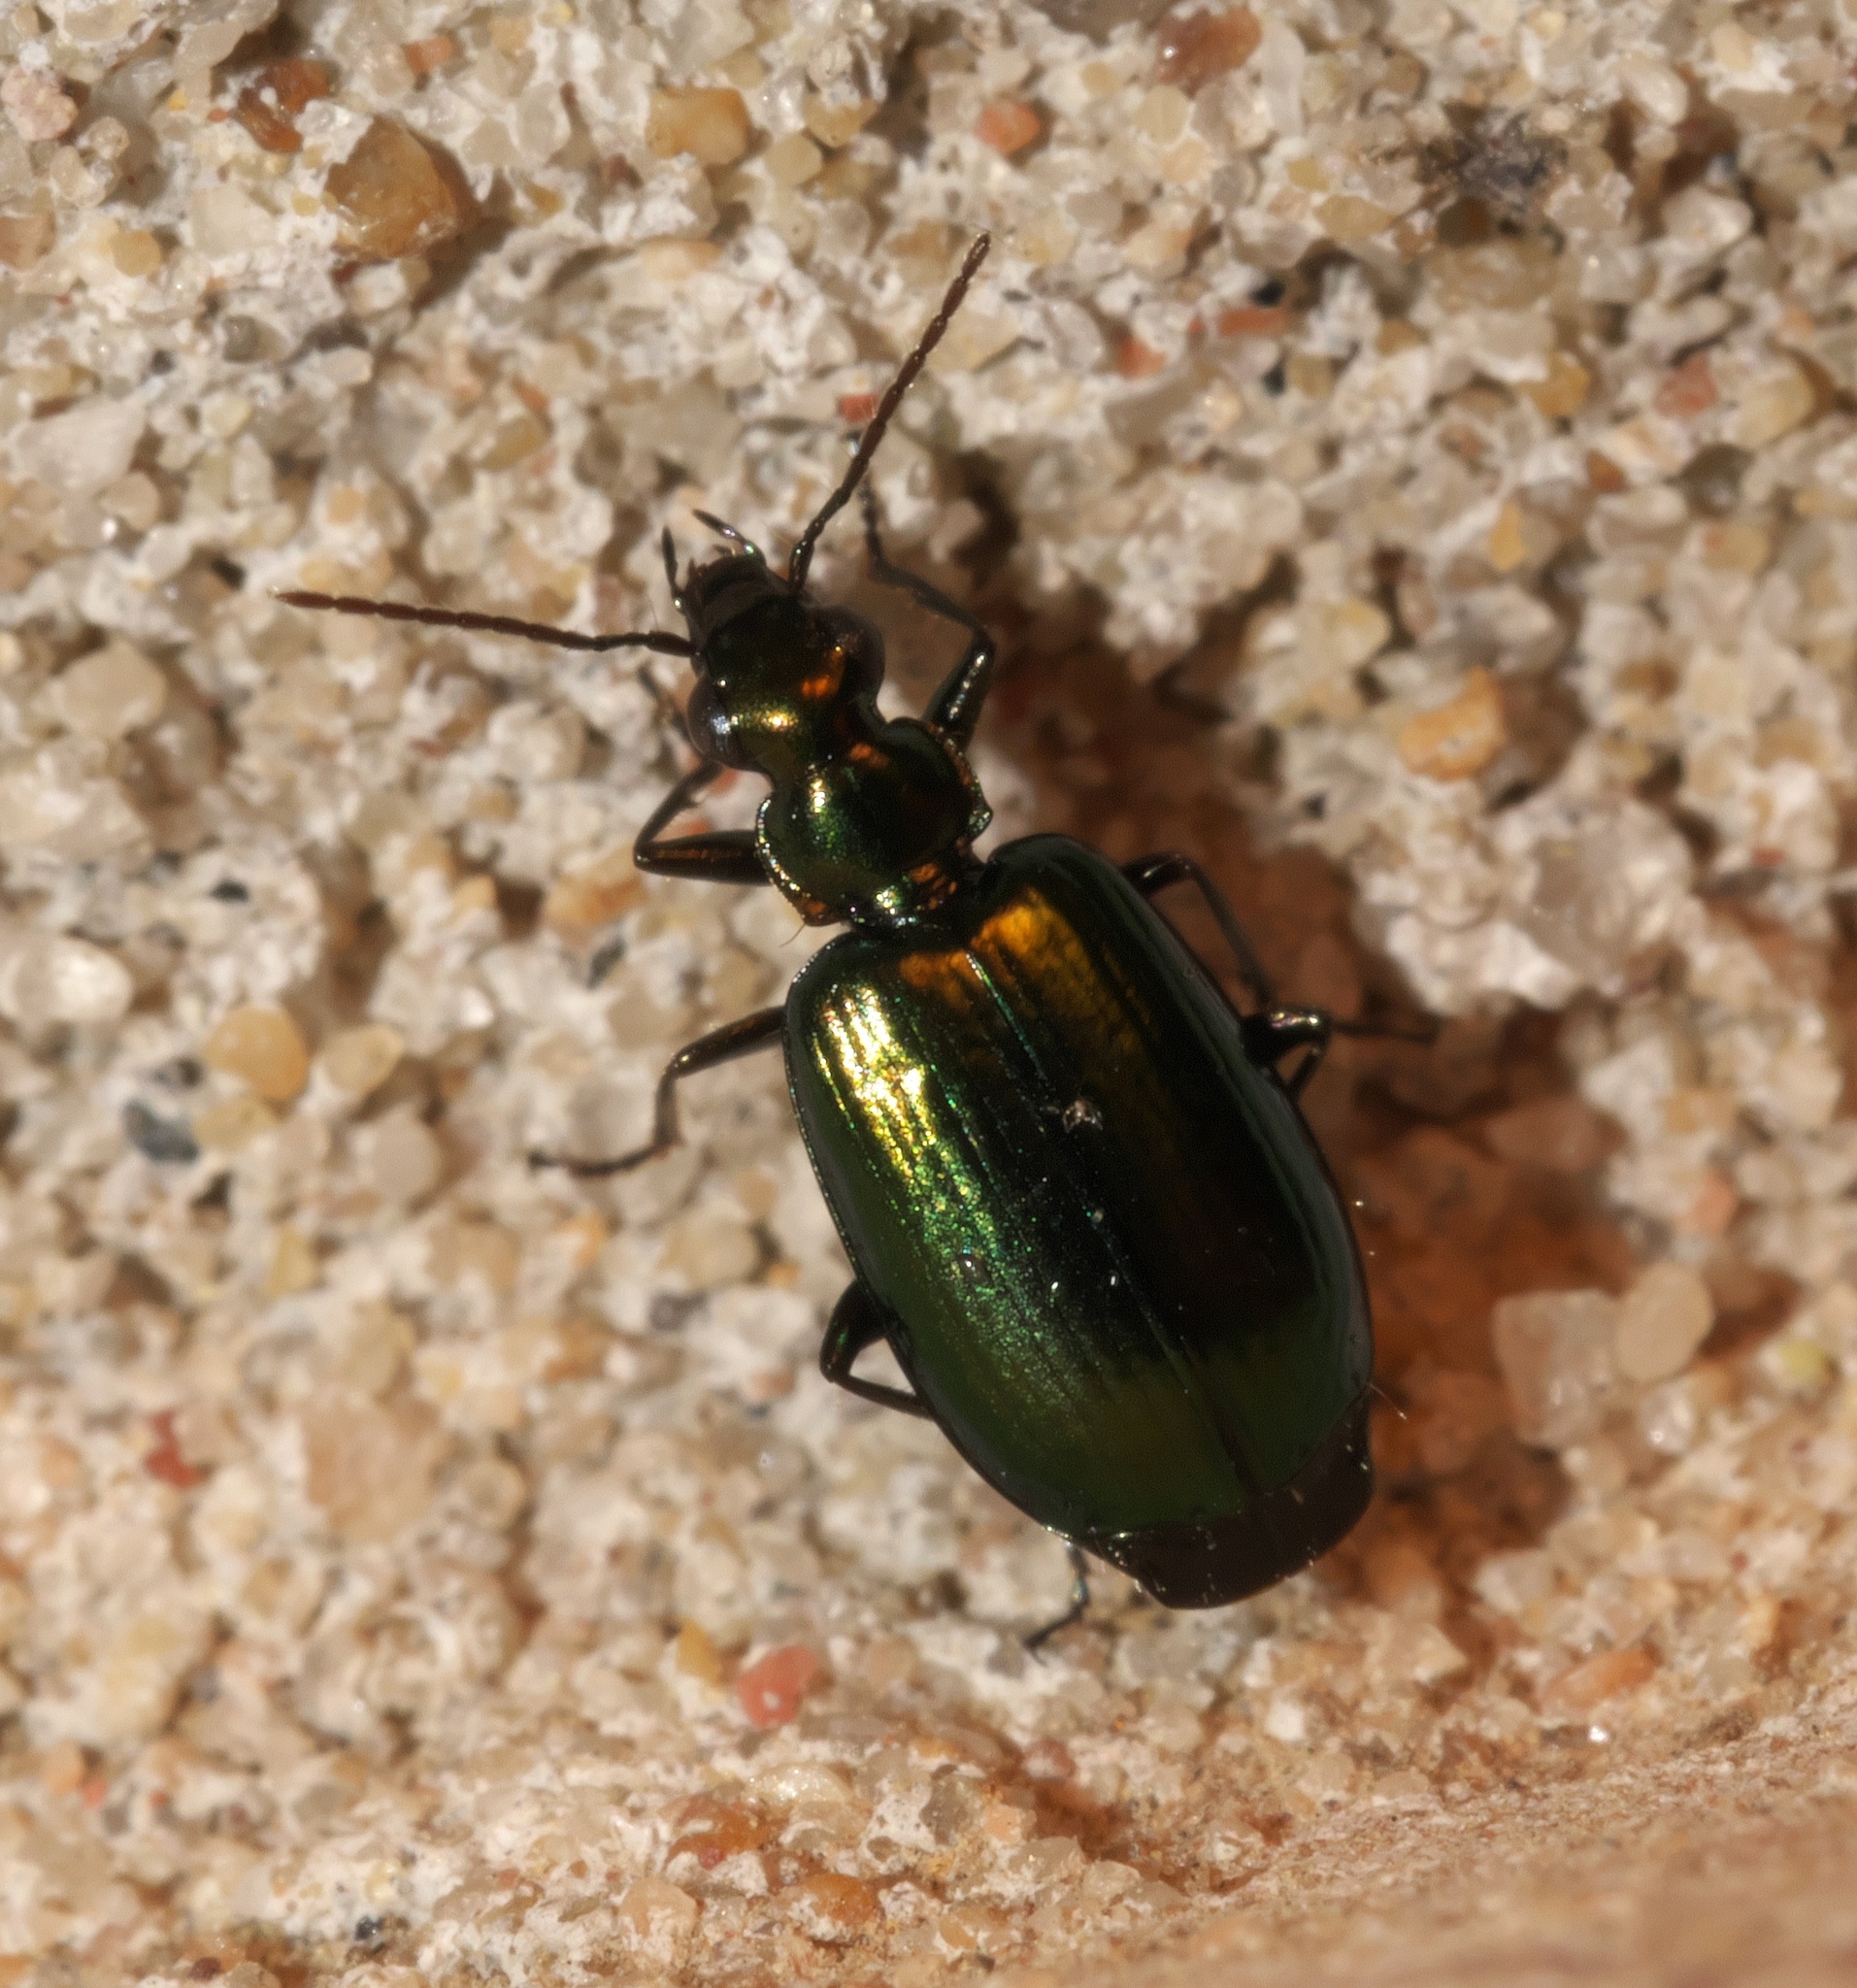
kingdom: Animalia
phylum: Arthropoda
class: Insecta
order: Coleoptera
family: Carabidae
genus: Lebia
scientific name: Lebia viridis
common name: Flower lebia beetle
